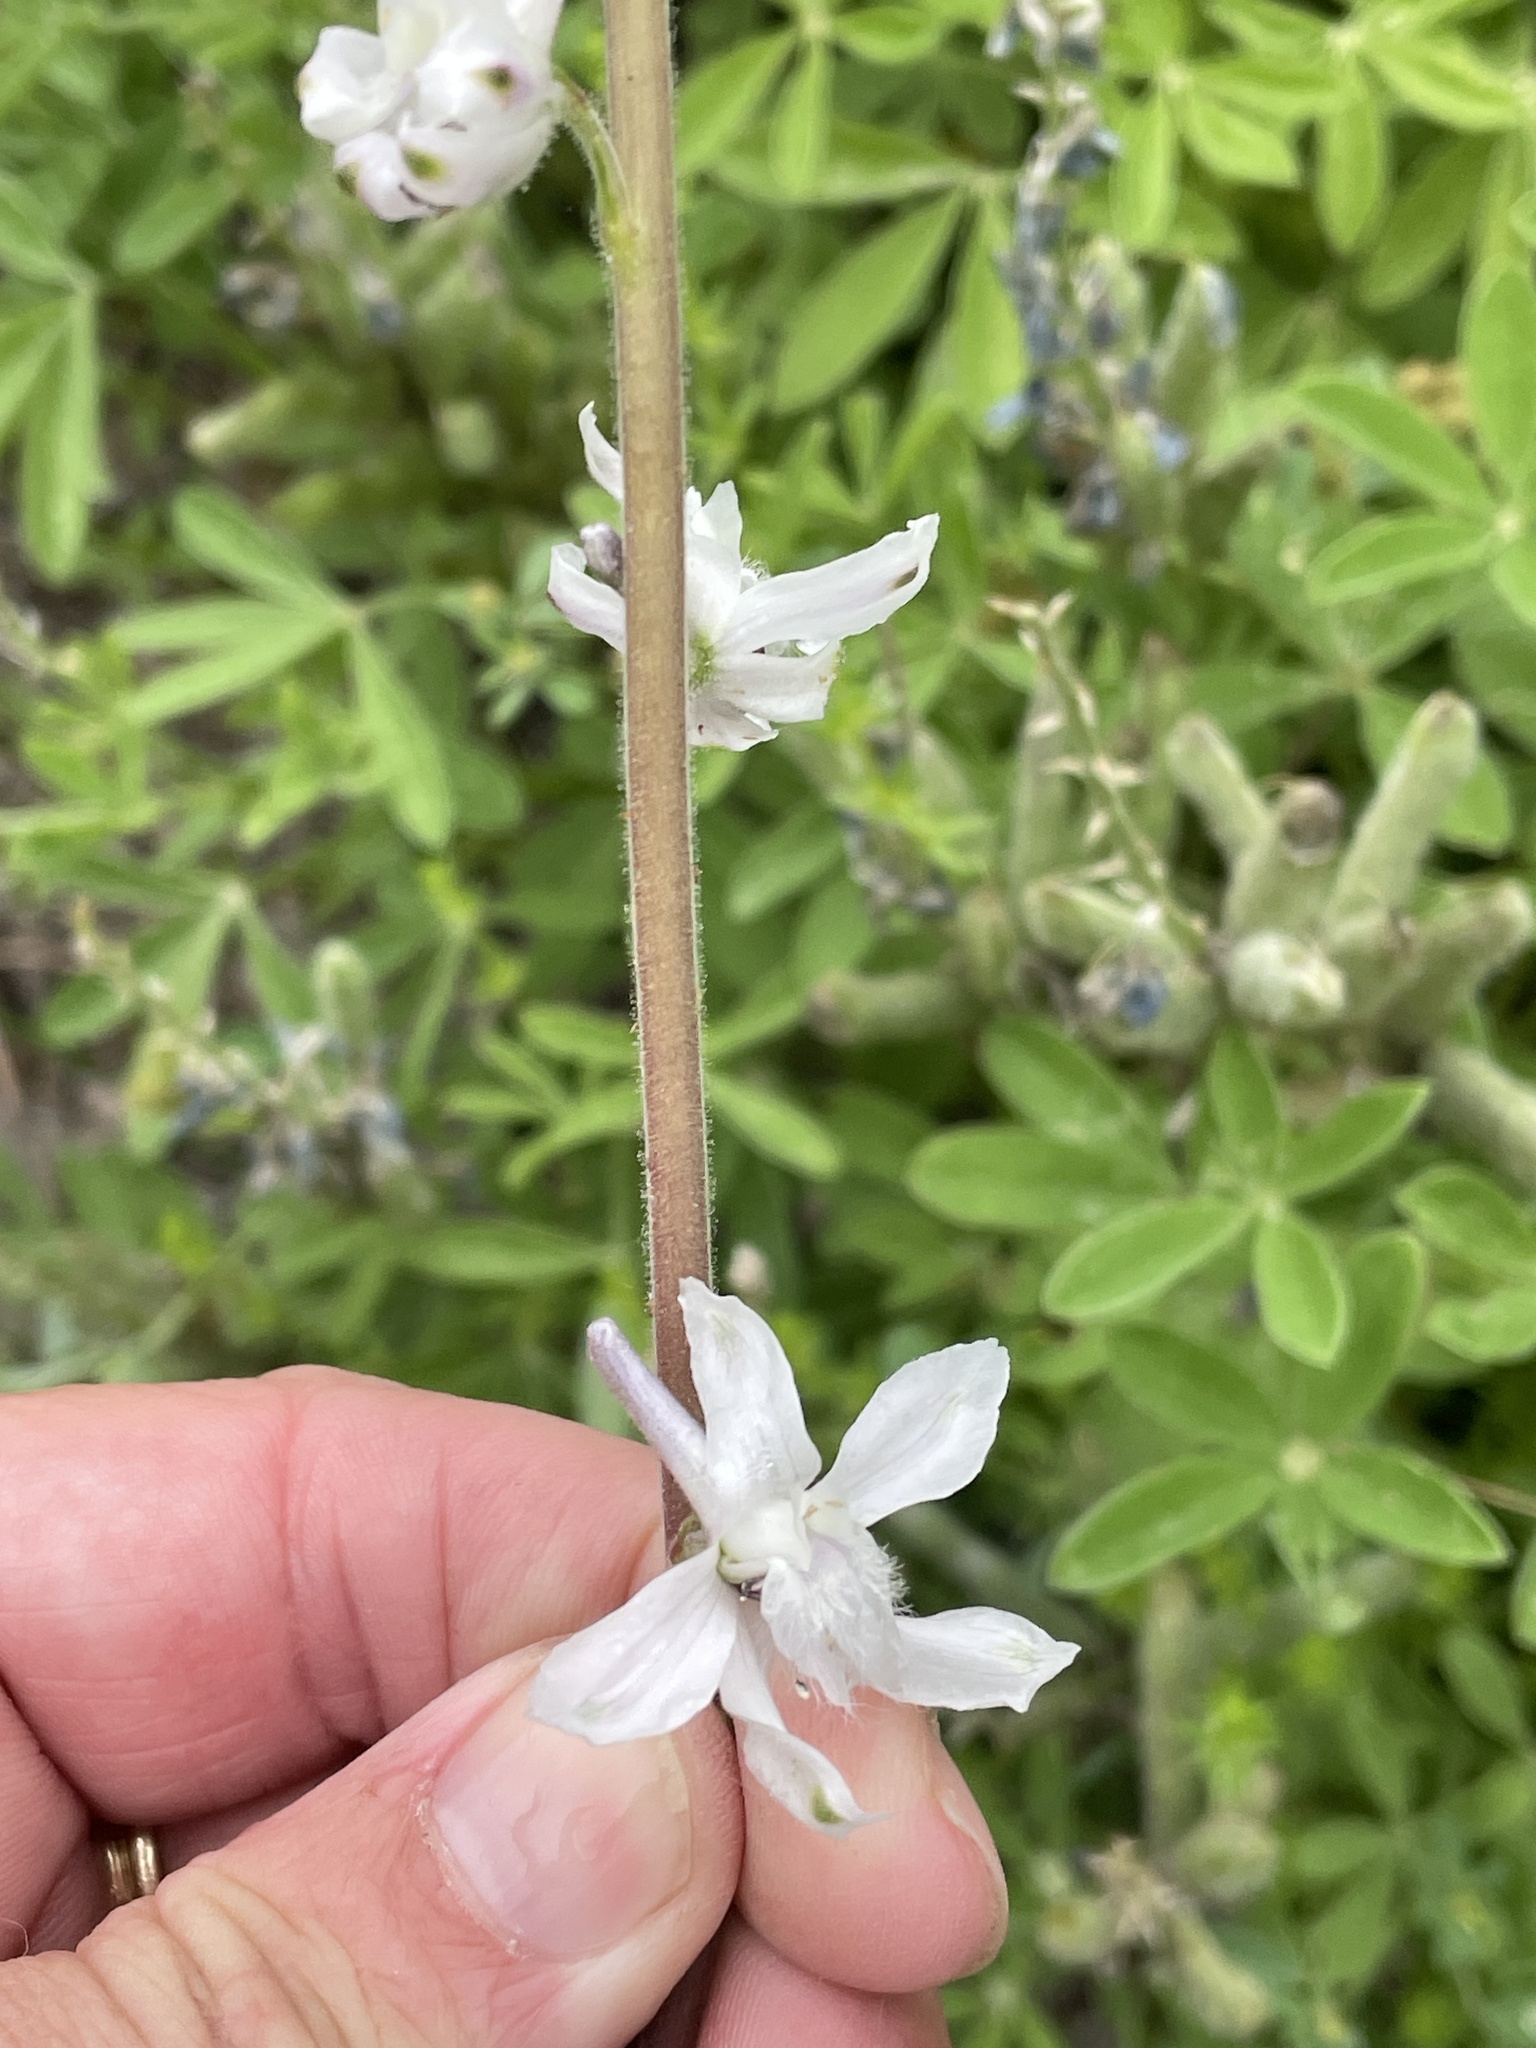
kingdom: Plantae
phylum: Tracheophyta
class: Magnoliopsida
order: Ranunculales
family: Ranunculaceae
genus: Delphinium
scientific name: Delphinium carolinianum
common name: Carolina larkspur
